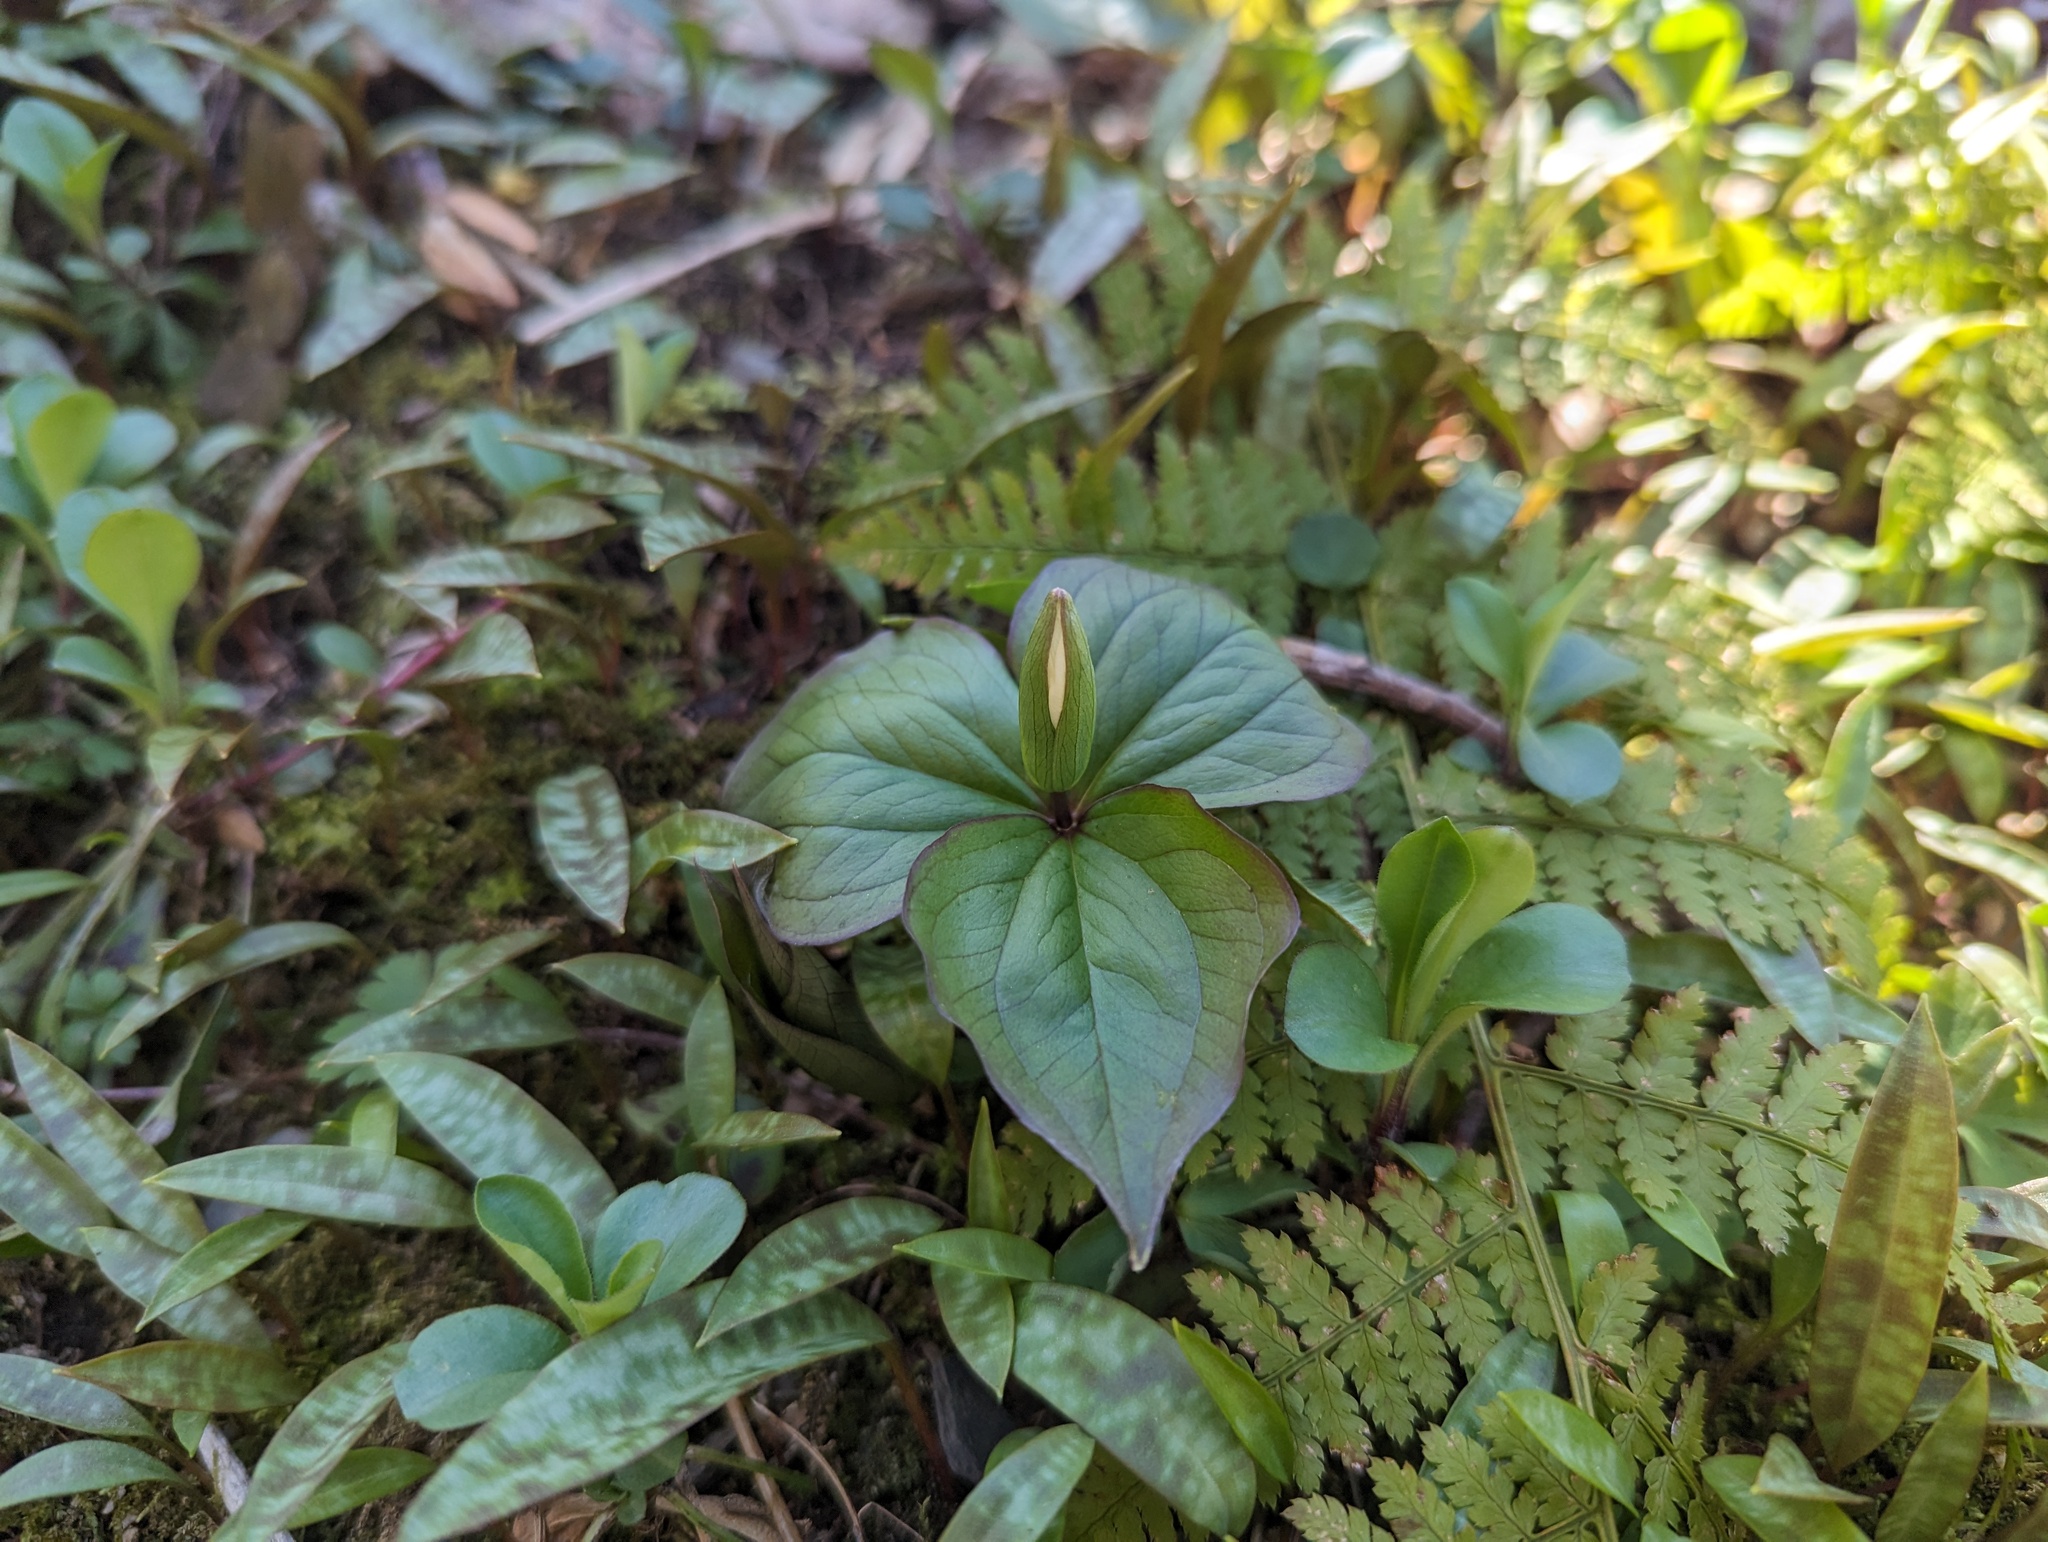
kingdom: Plantae
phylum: Tracheophyta
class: Liliopsida
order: Liliales
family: Melanthiaceae
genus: Trillium
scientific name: Trillium grandiflorum
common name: Great white trillium
